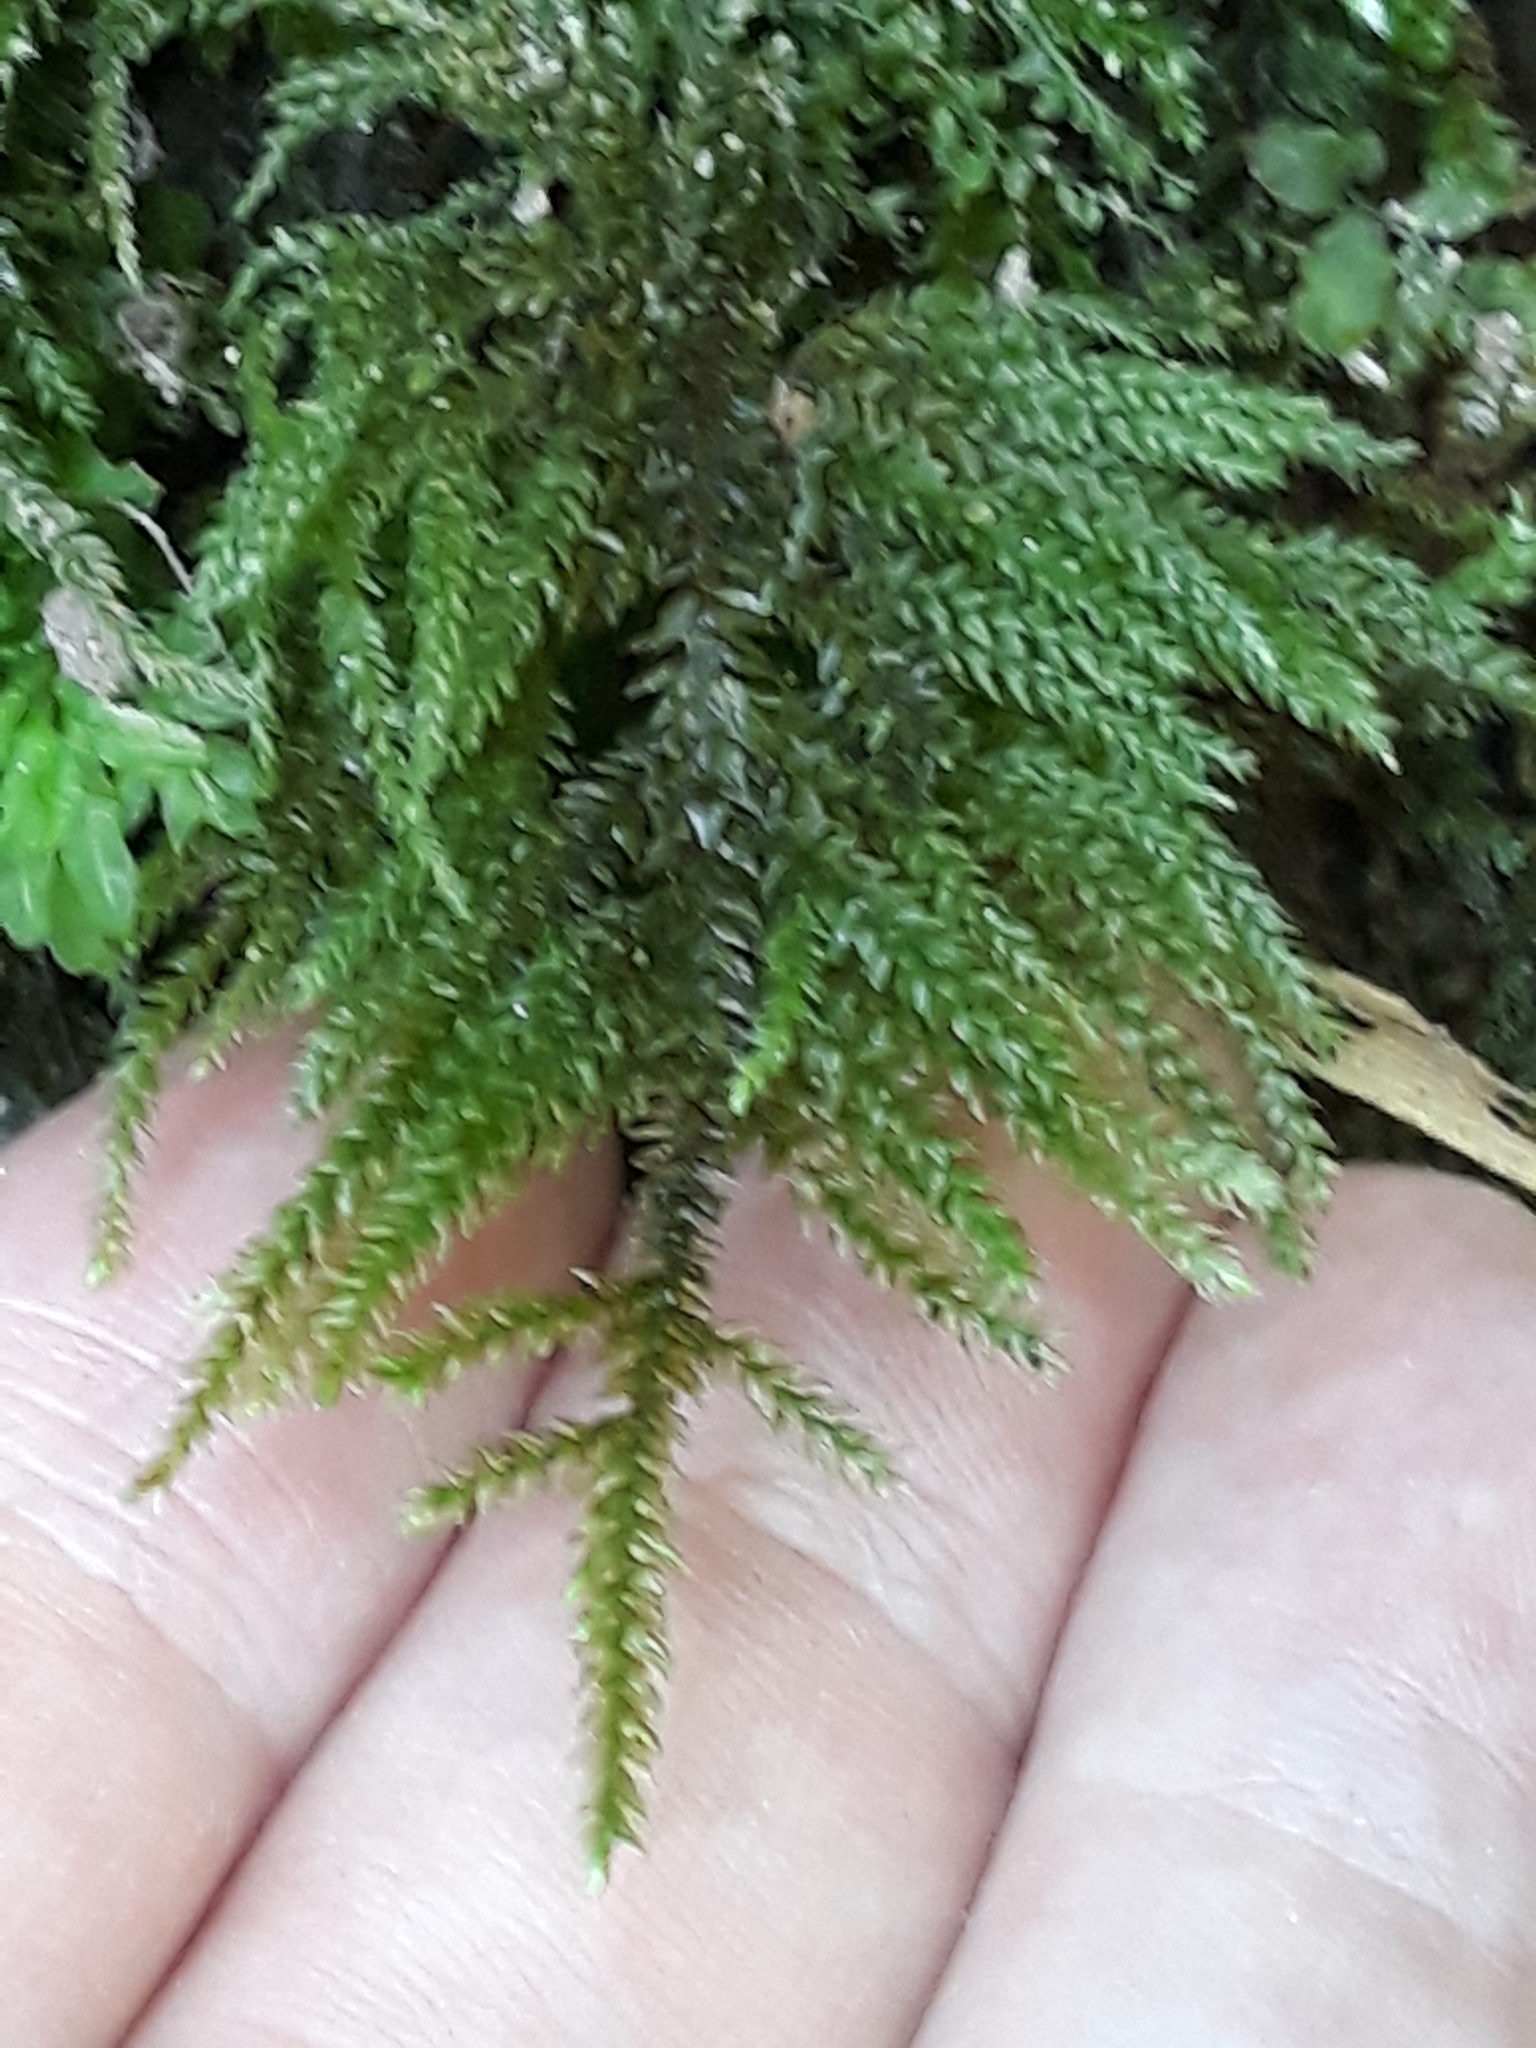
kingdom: Plantae
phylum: Bryophyta
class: Bryopsida
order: Hypnales
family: Neckeraceae
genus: Thamnobryum
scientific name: Thamnobryum alopecurum
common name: Fox-tail feather-moss
